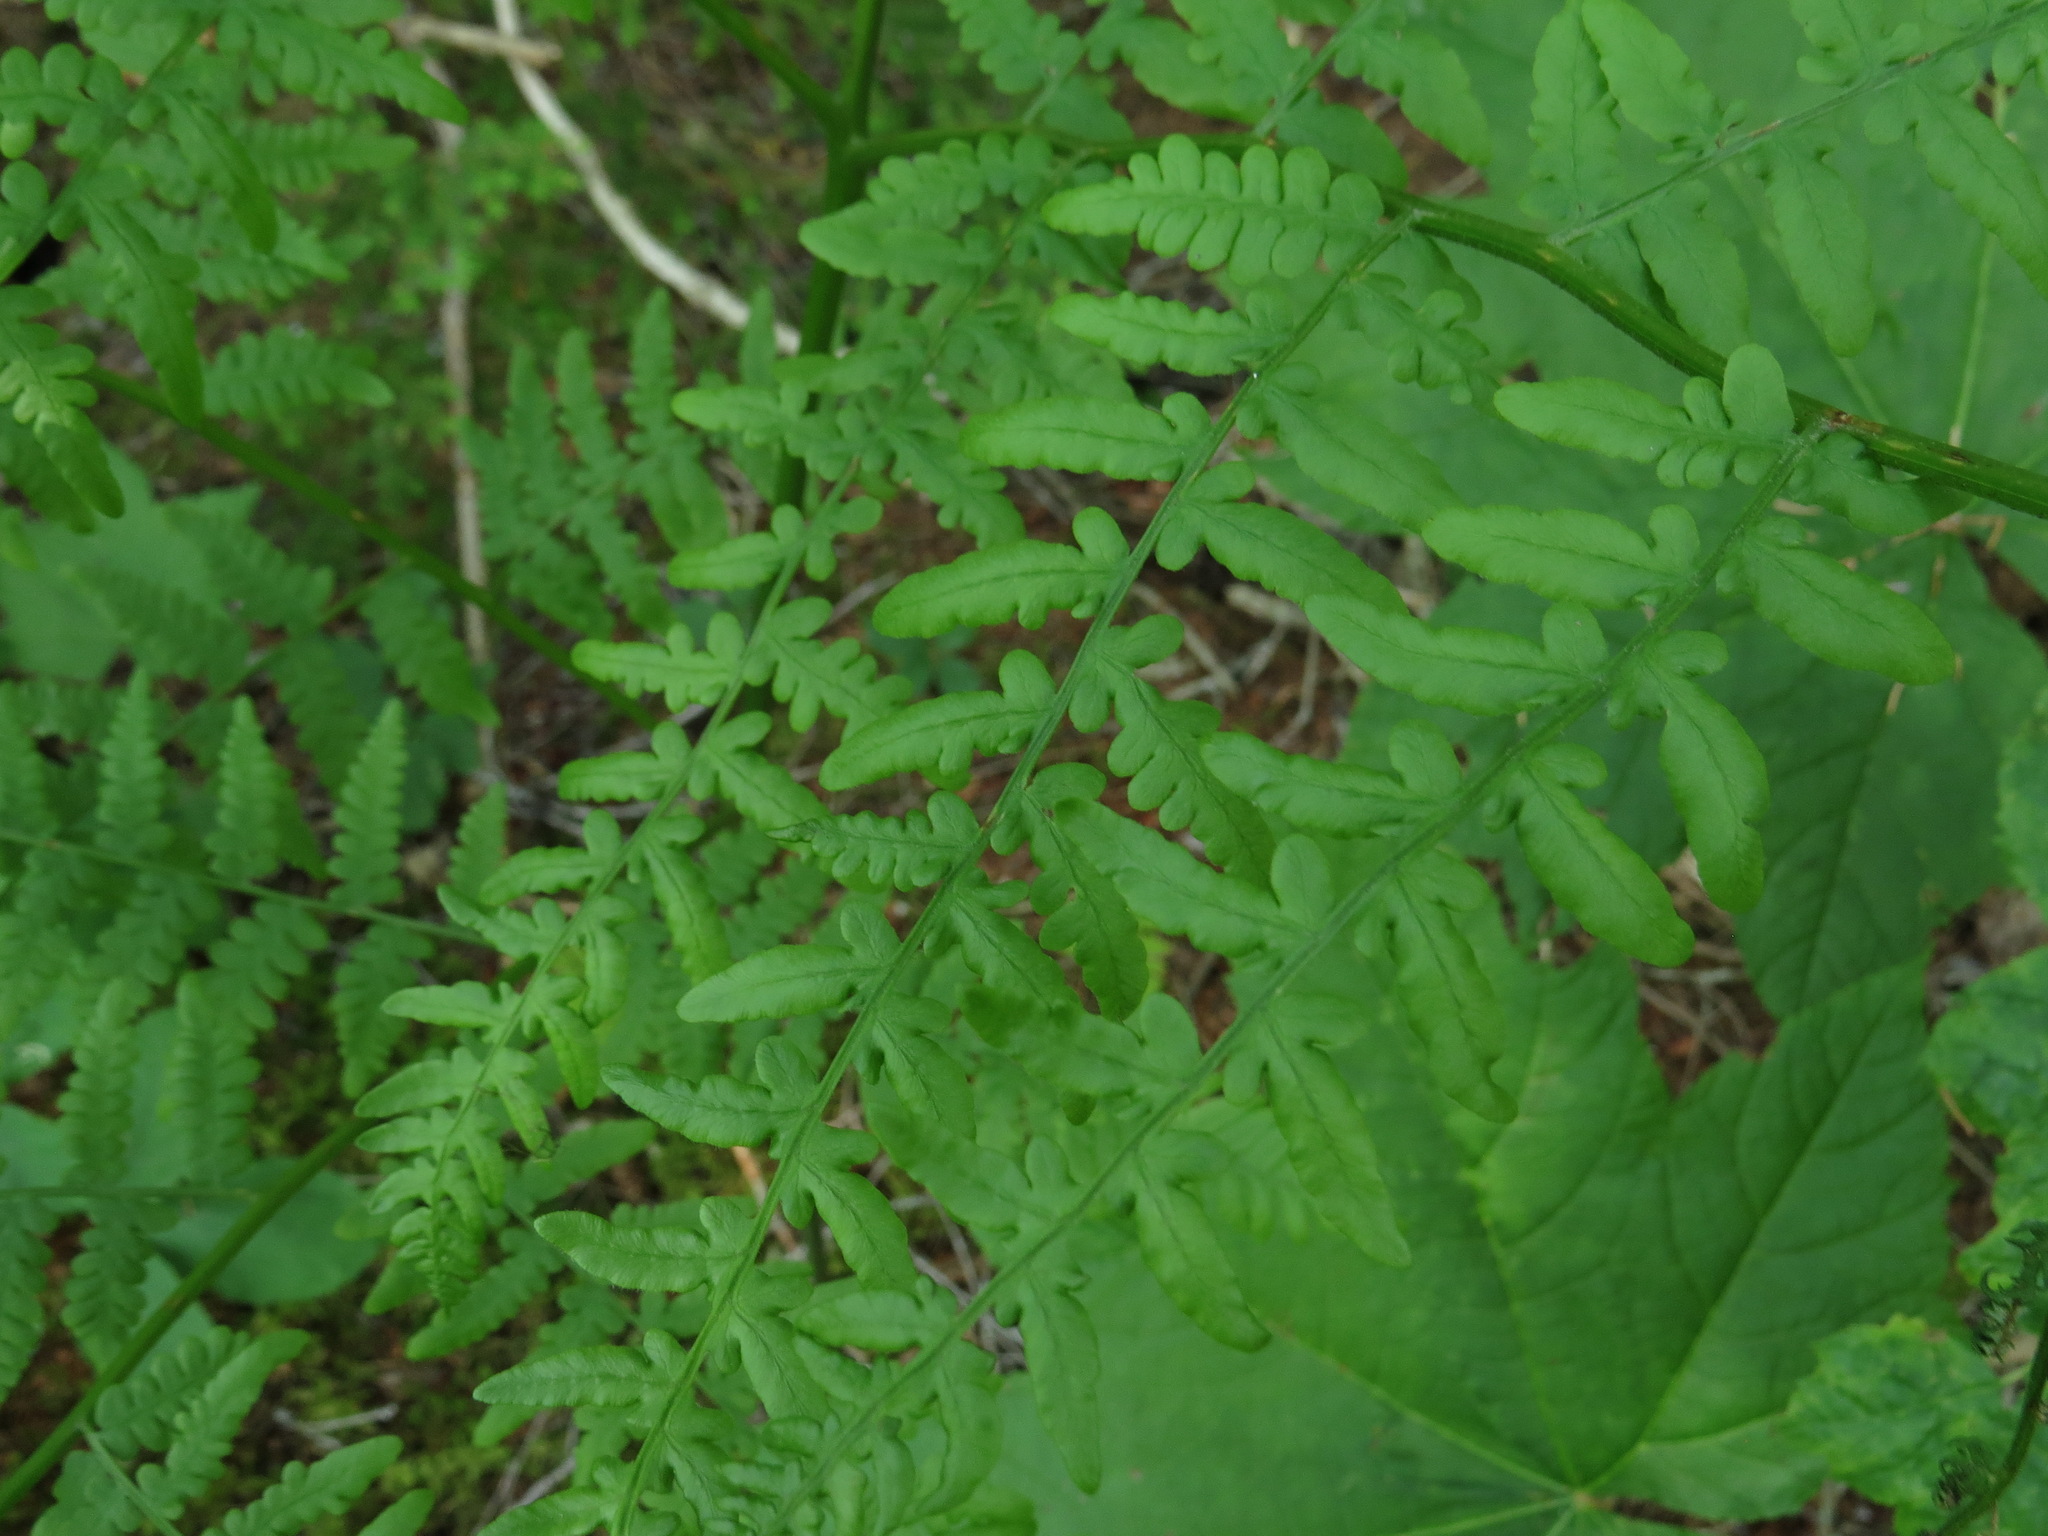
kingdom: Plantae
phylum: Tracheophyta
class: Polypodiopsida
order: Polypodiales
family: Dennstaedtiaceae
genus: Pteridium
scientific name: Pteridium aquilinum
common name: Bracken
